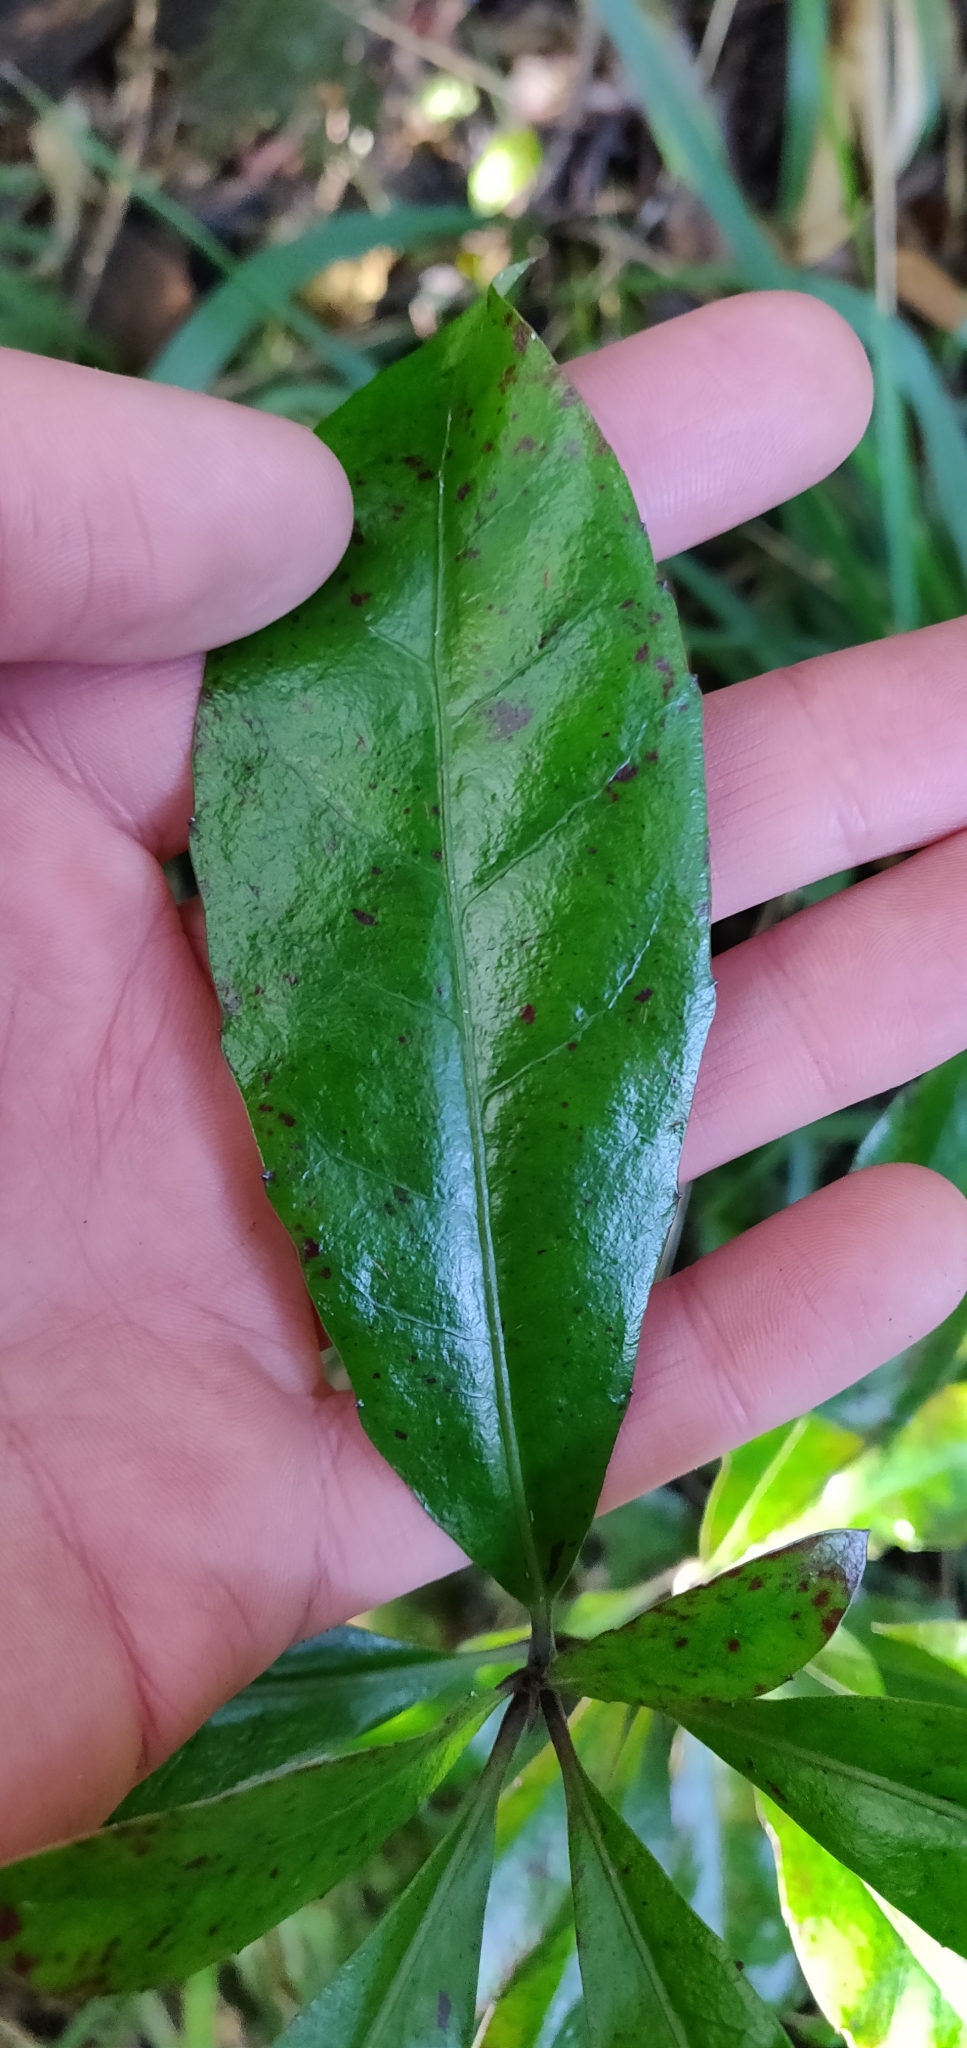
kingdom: Plantae
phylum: Tracheophyta
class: Magnoliopsida
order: Asterales
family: Alseuosmiaceae
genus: Alseuosmia
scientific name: Alseuosmia macrophylla
